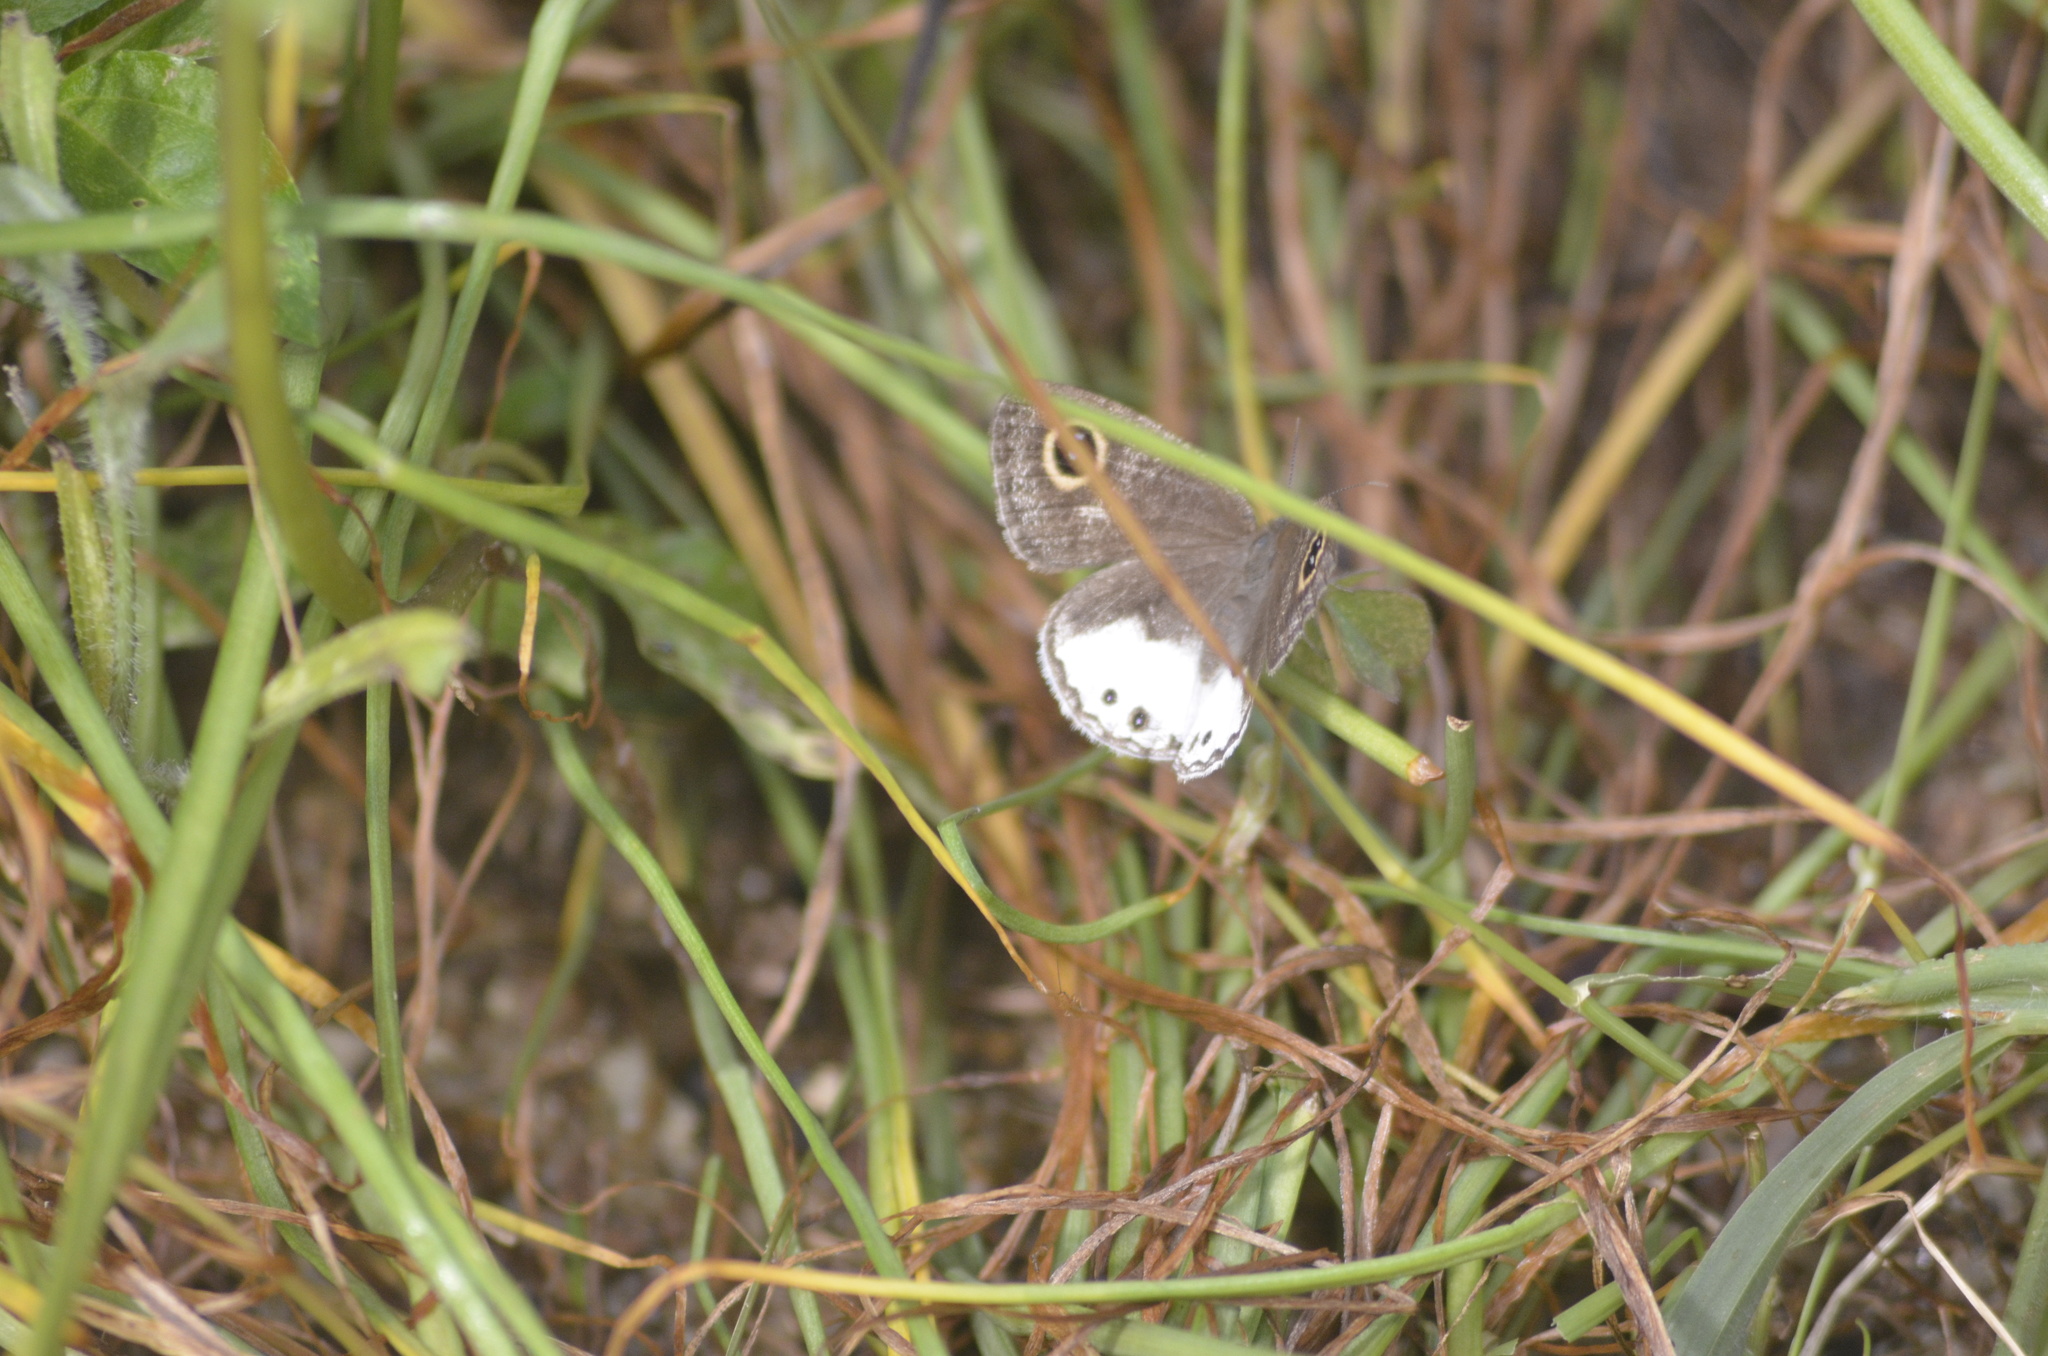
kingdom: Animalia
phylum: Arthropoda
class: Insecta
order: Lepidoptera
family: Nymphalidae
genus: Ypthima
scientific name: Ypthima ceylonica
